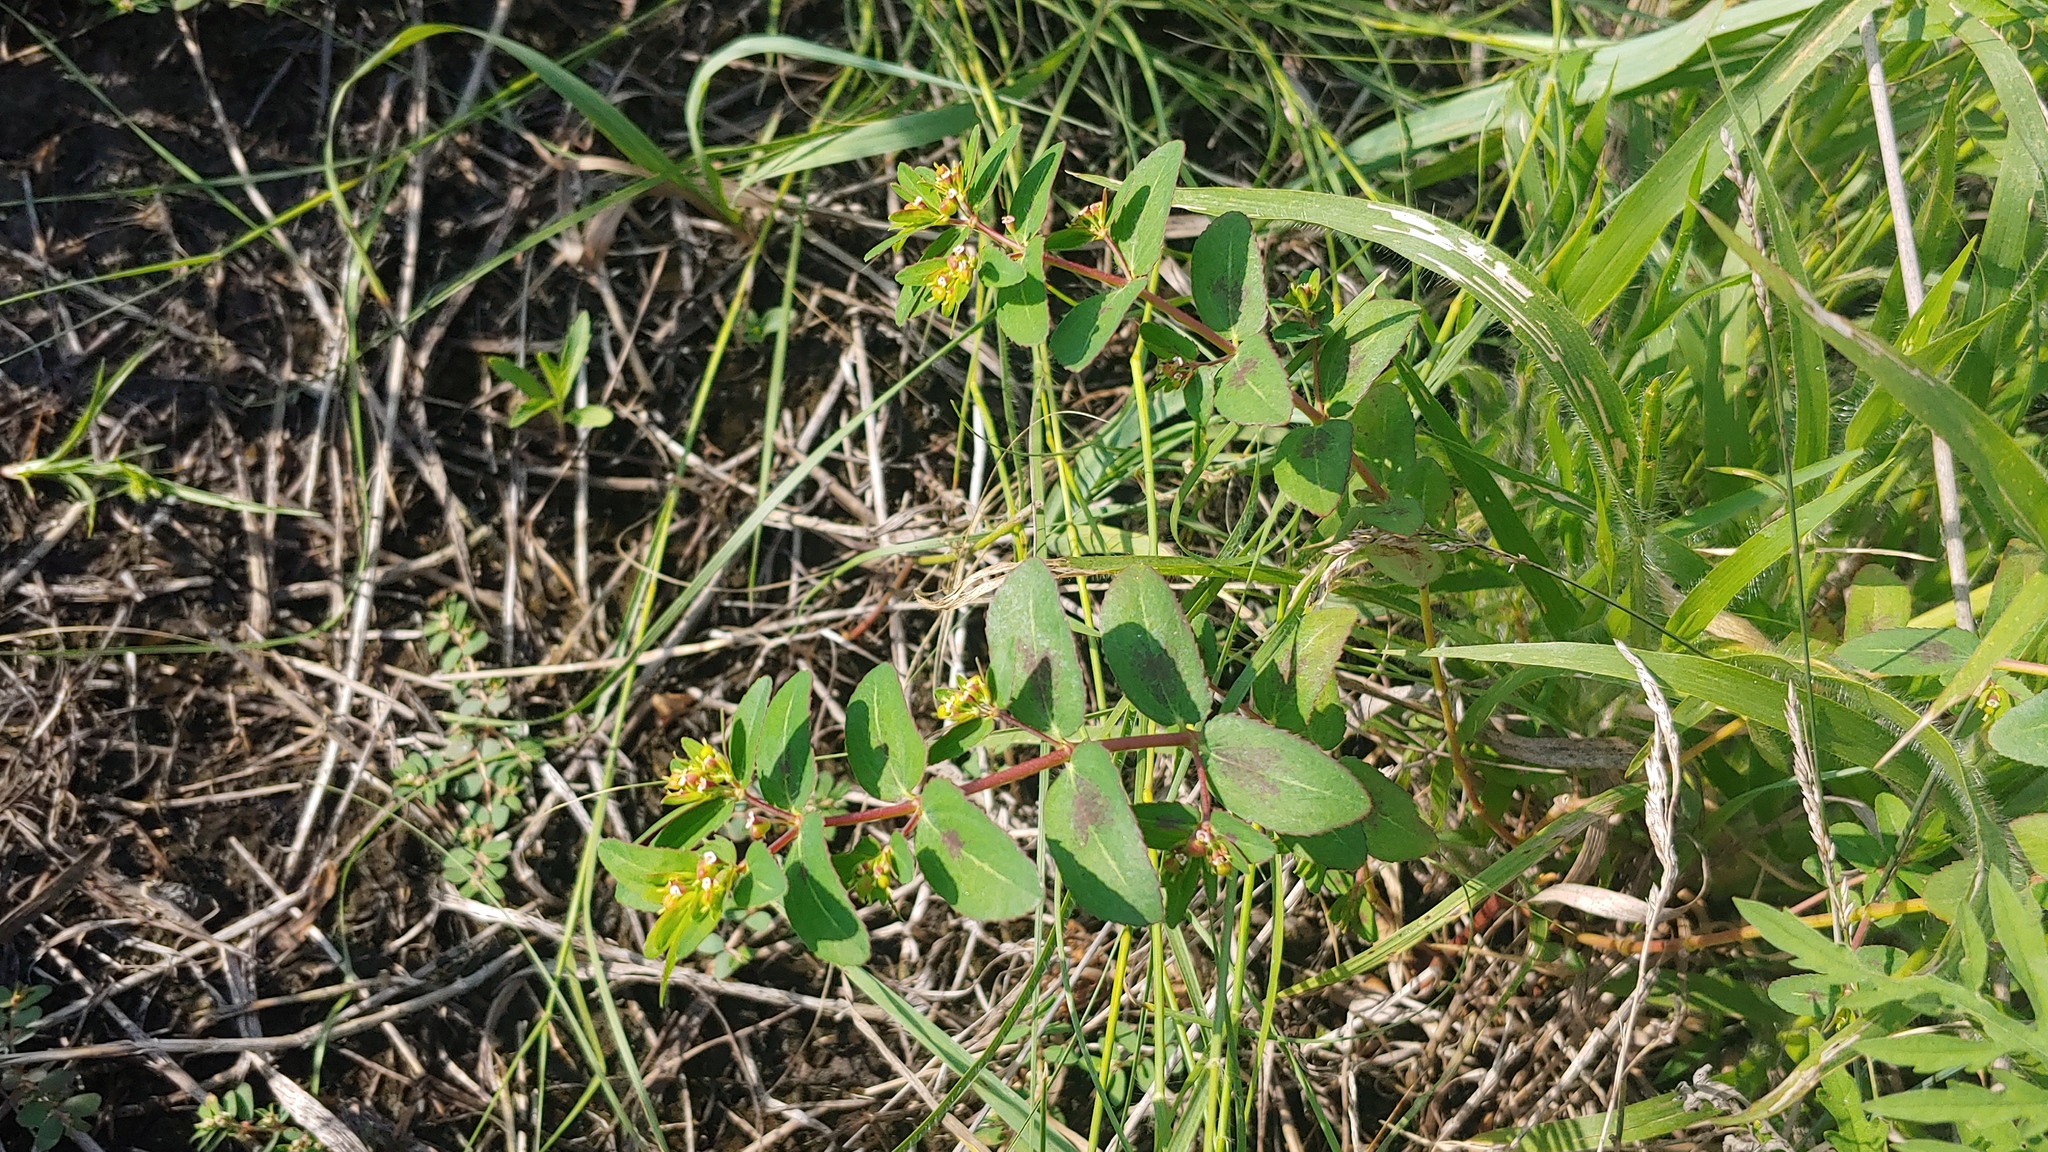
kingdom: Plantae
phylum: Tracheophyta
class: Magnoliopsida
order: Malpighiales
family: Euphorbiaceae
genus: Euphorbia
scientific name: Euphorbia nutans
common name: Eyebane
